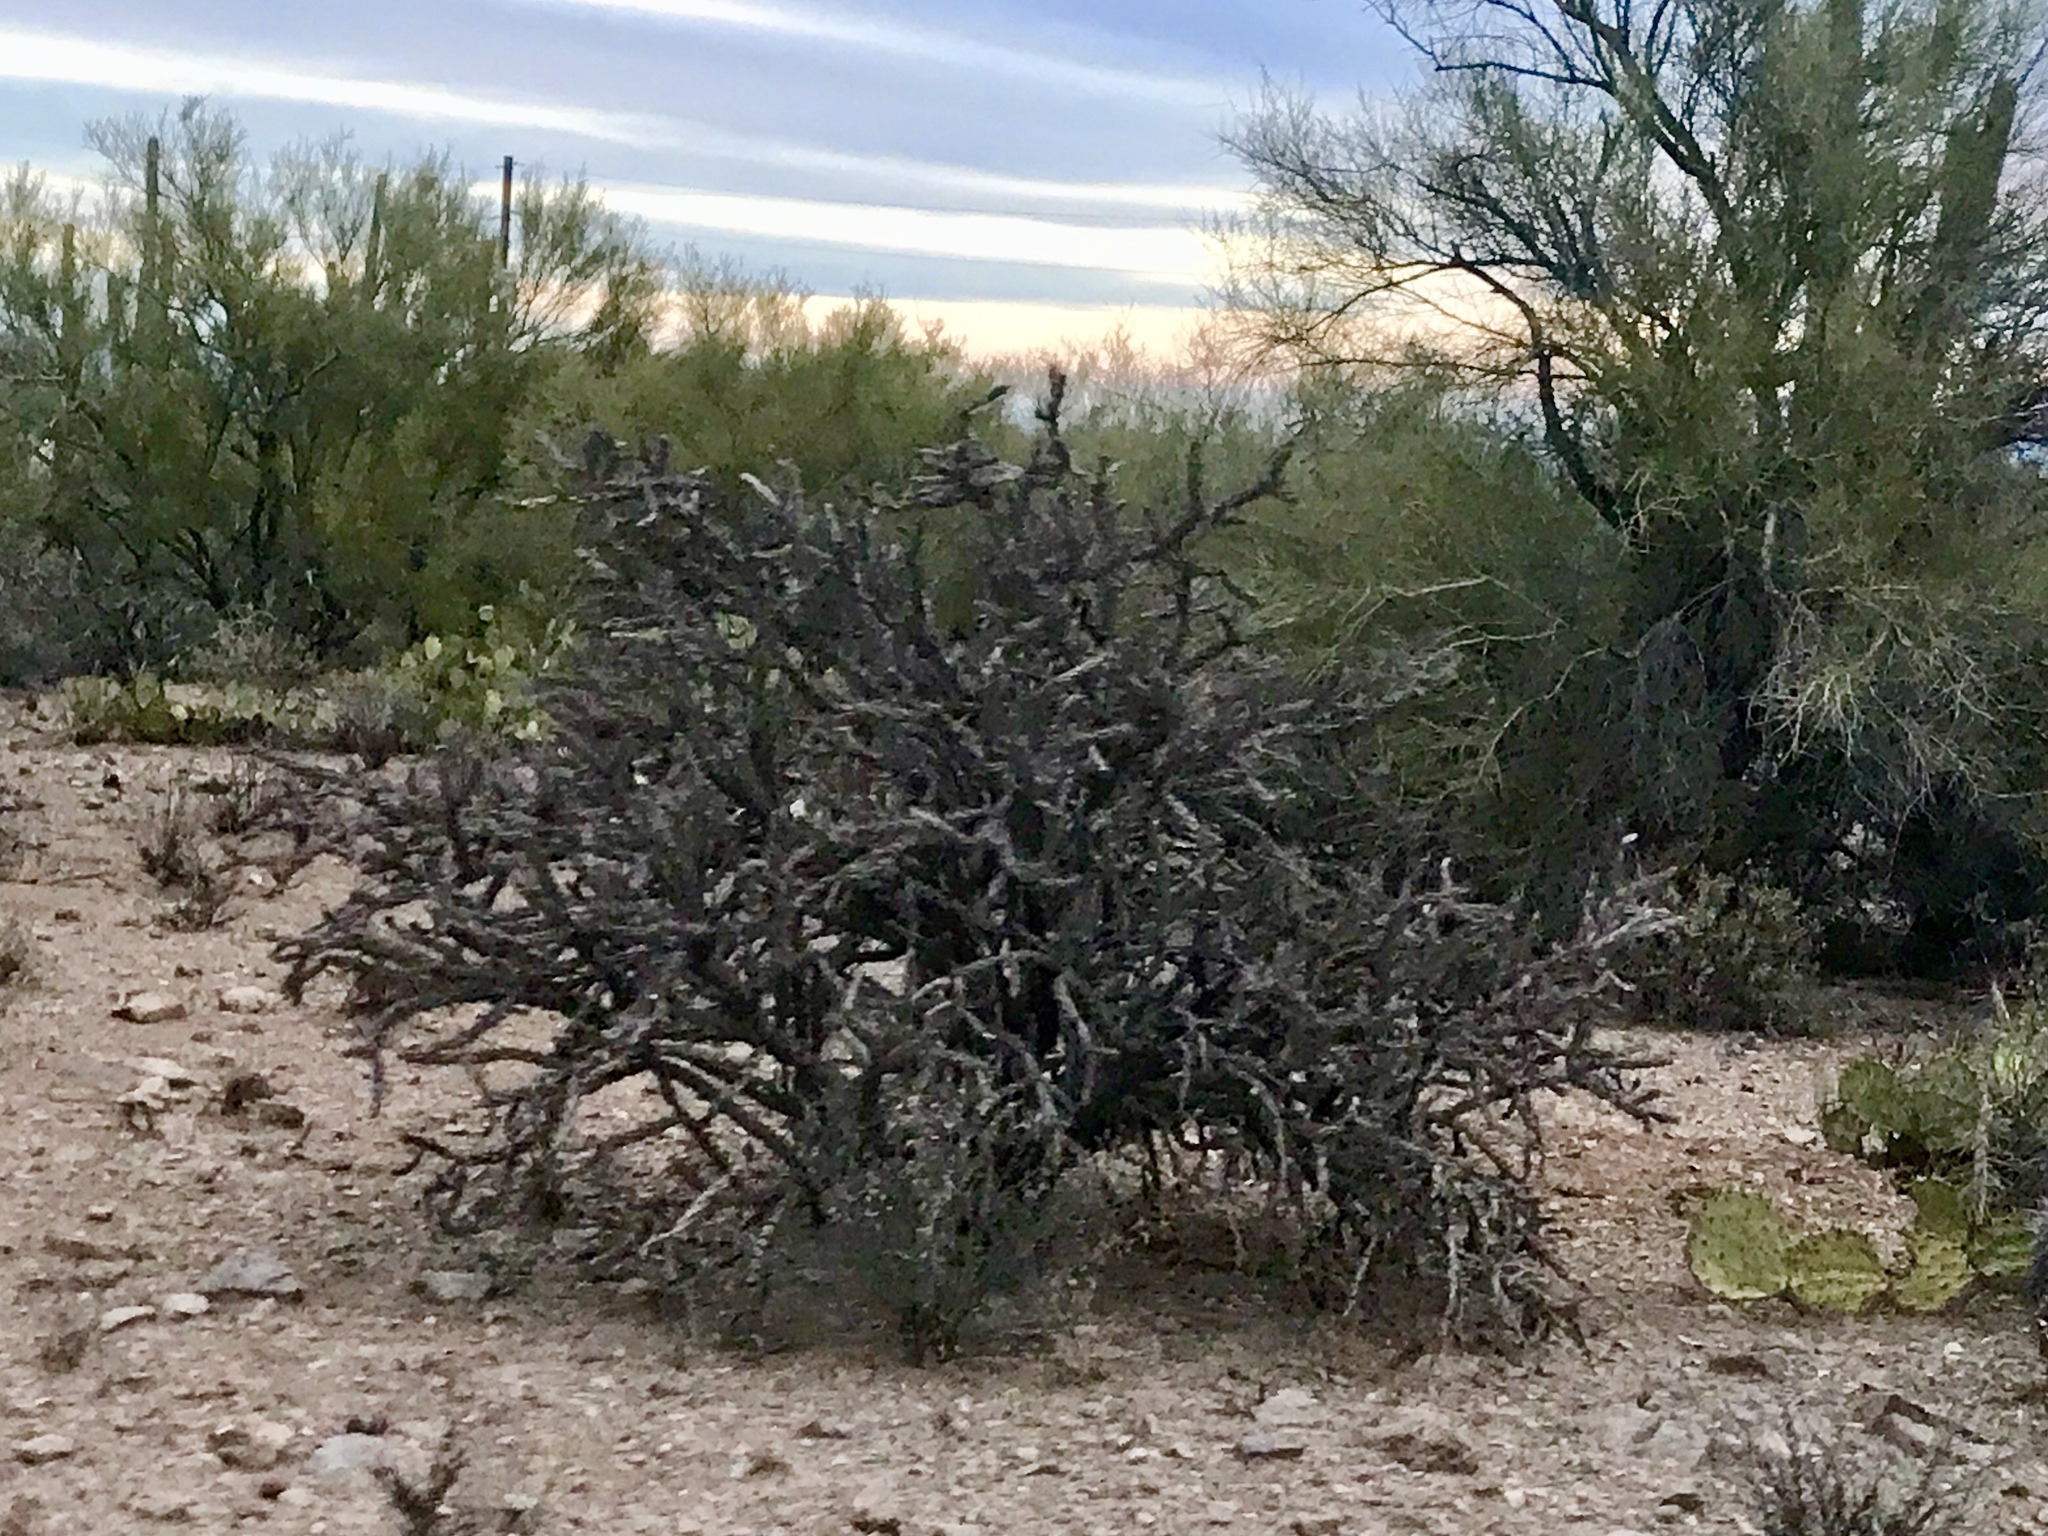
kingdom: Plantae
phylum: Tracheophyta
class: Magnoliopsida
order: Caryophyllales
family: Cactaceae
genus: Cylindropuntia
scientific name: Cylindropuntia thurberi
